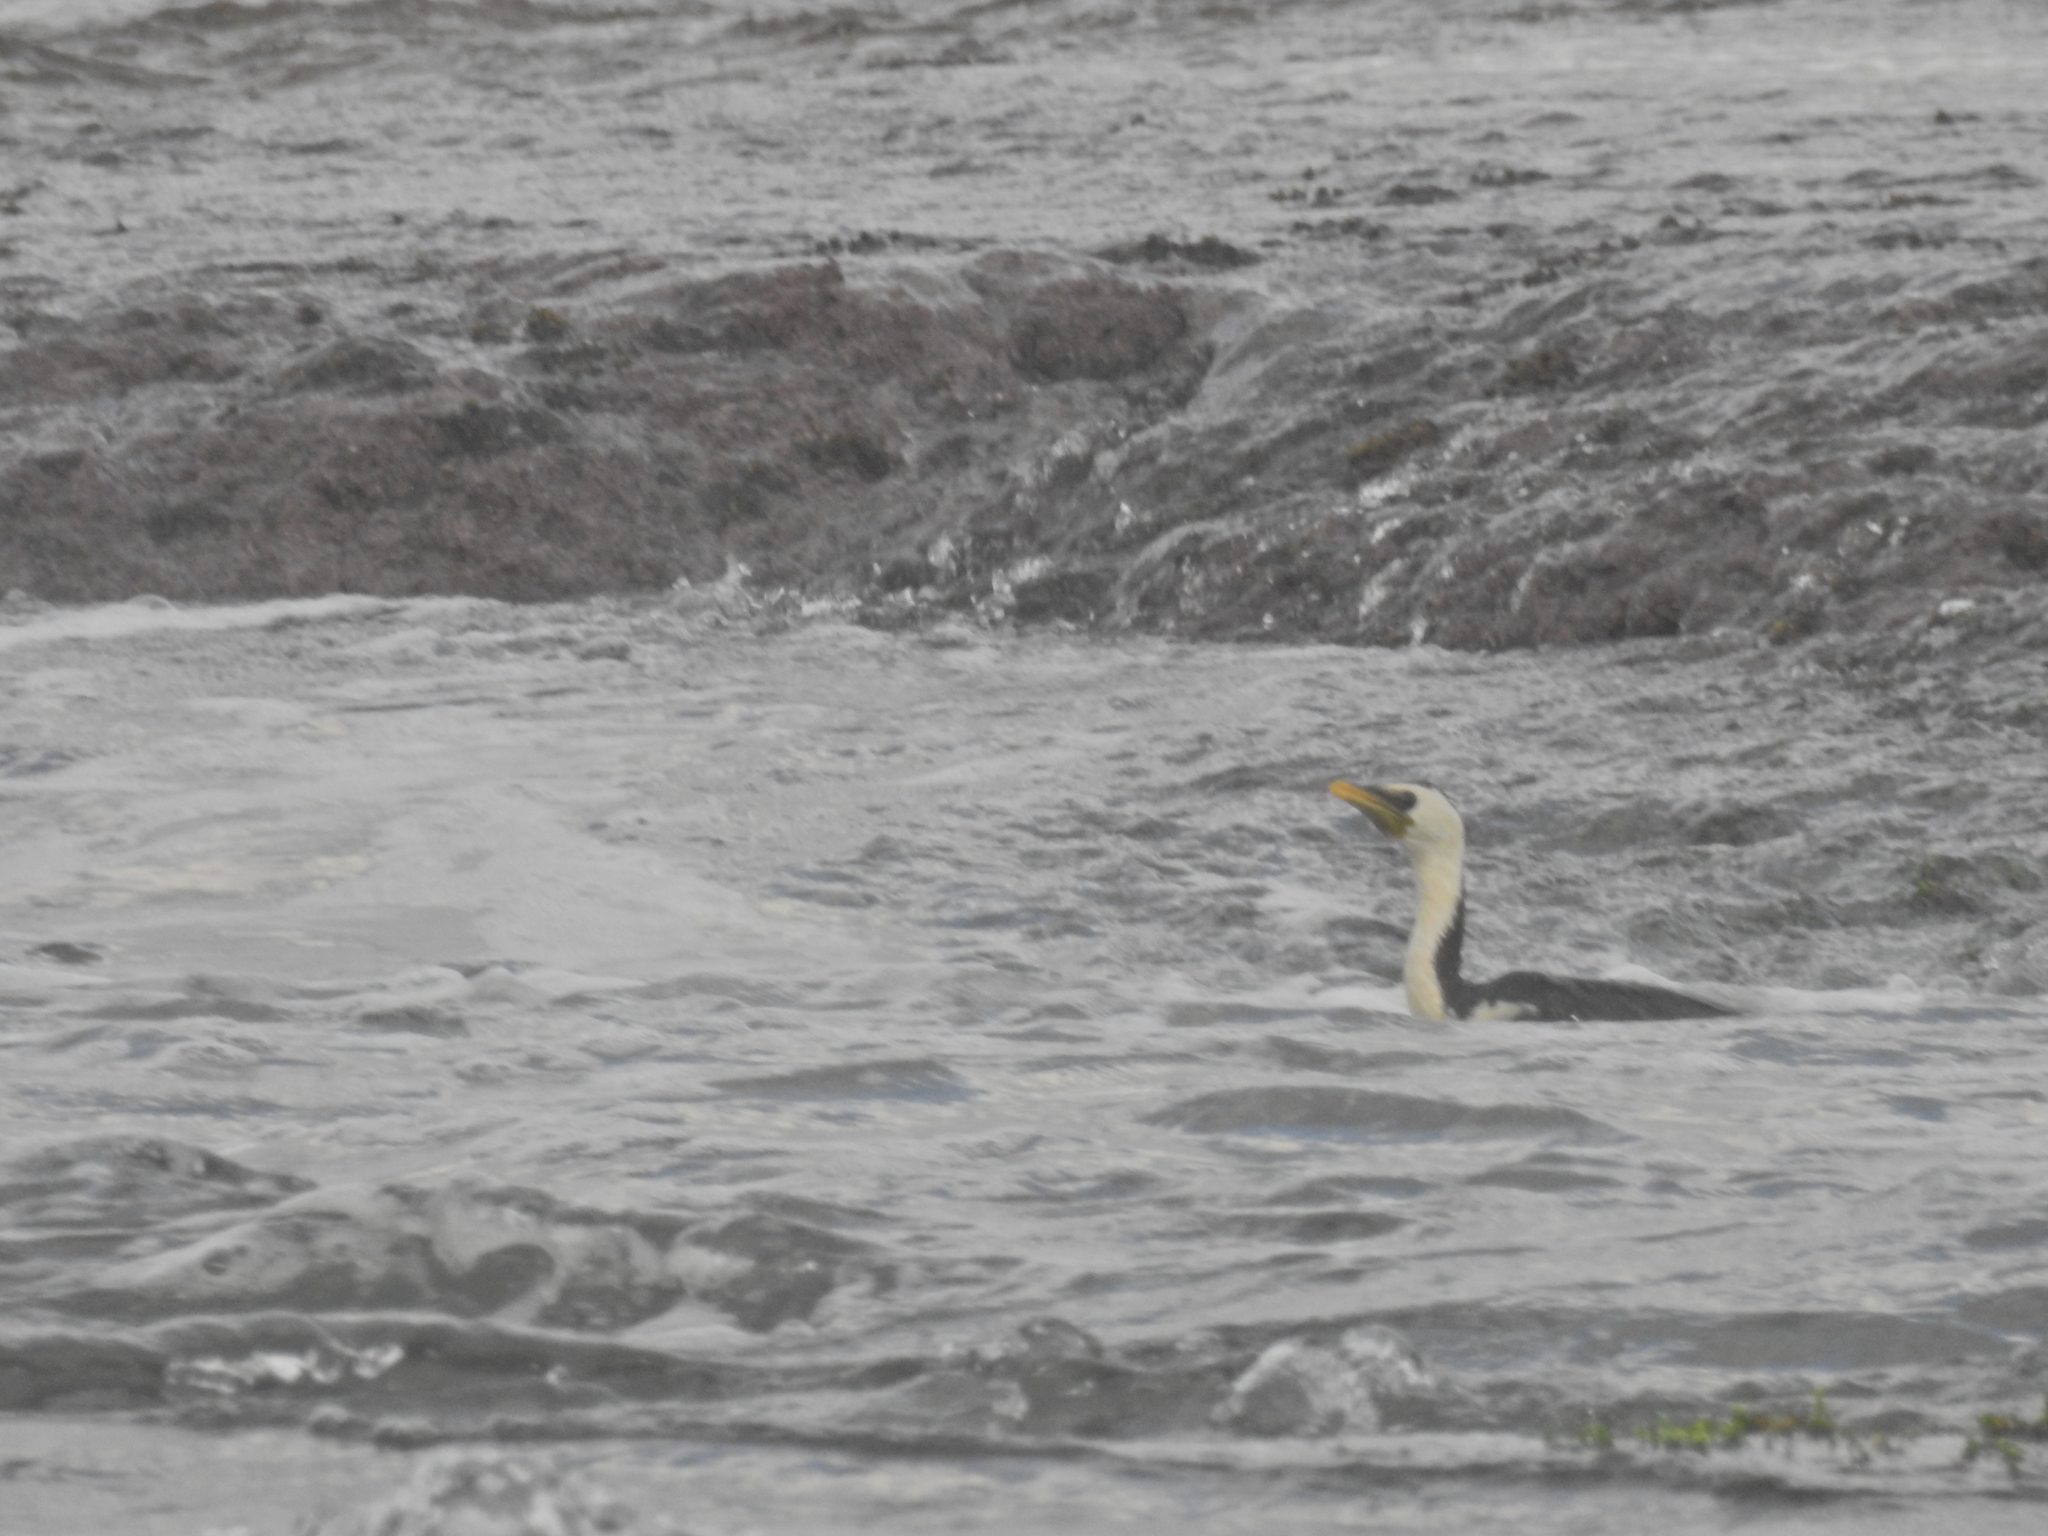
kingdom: Animalia
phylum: Chordata
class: Aves
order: Suliformes
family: Phalacrocoracidae
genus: Microcarbo
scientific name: Microcarbo melanoleucos
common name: Little pied cormorant
